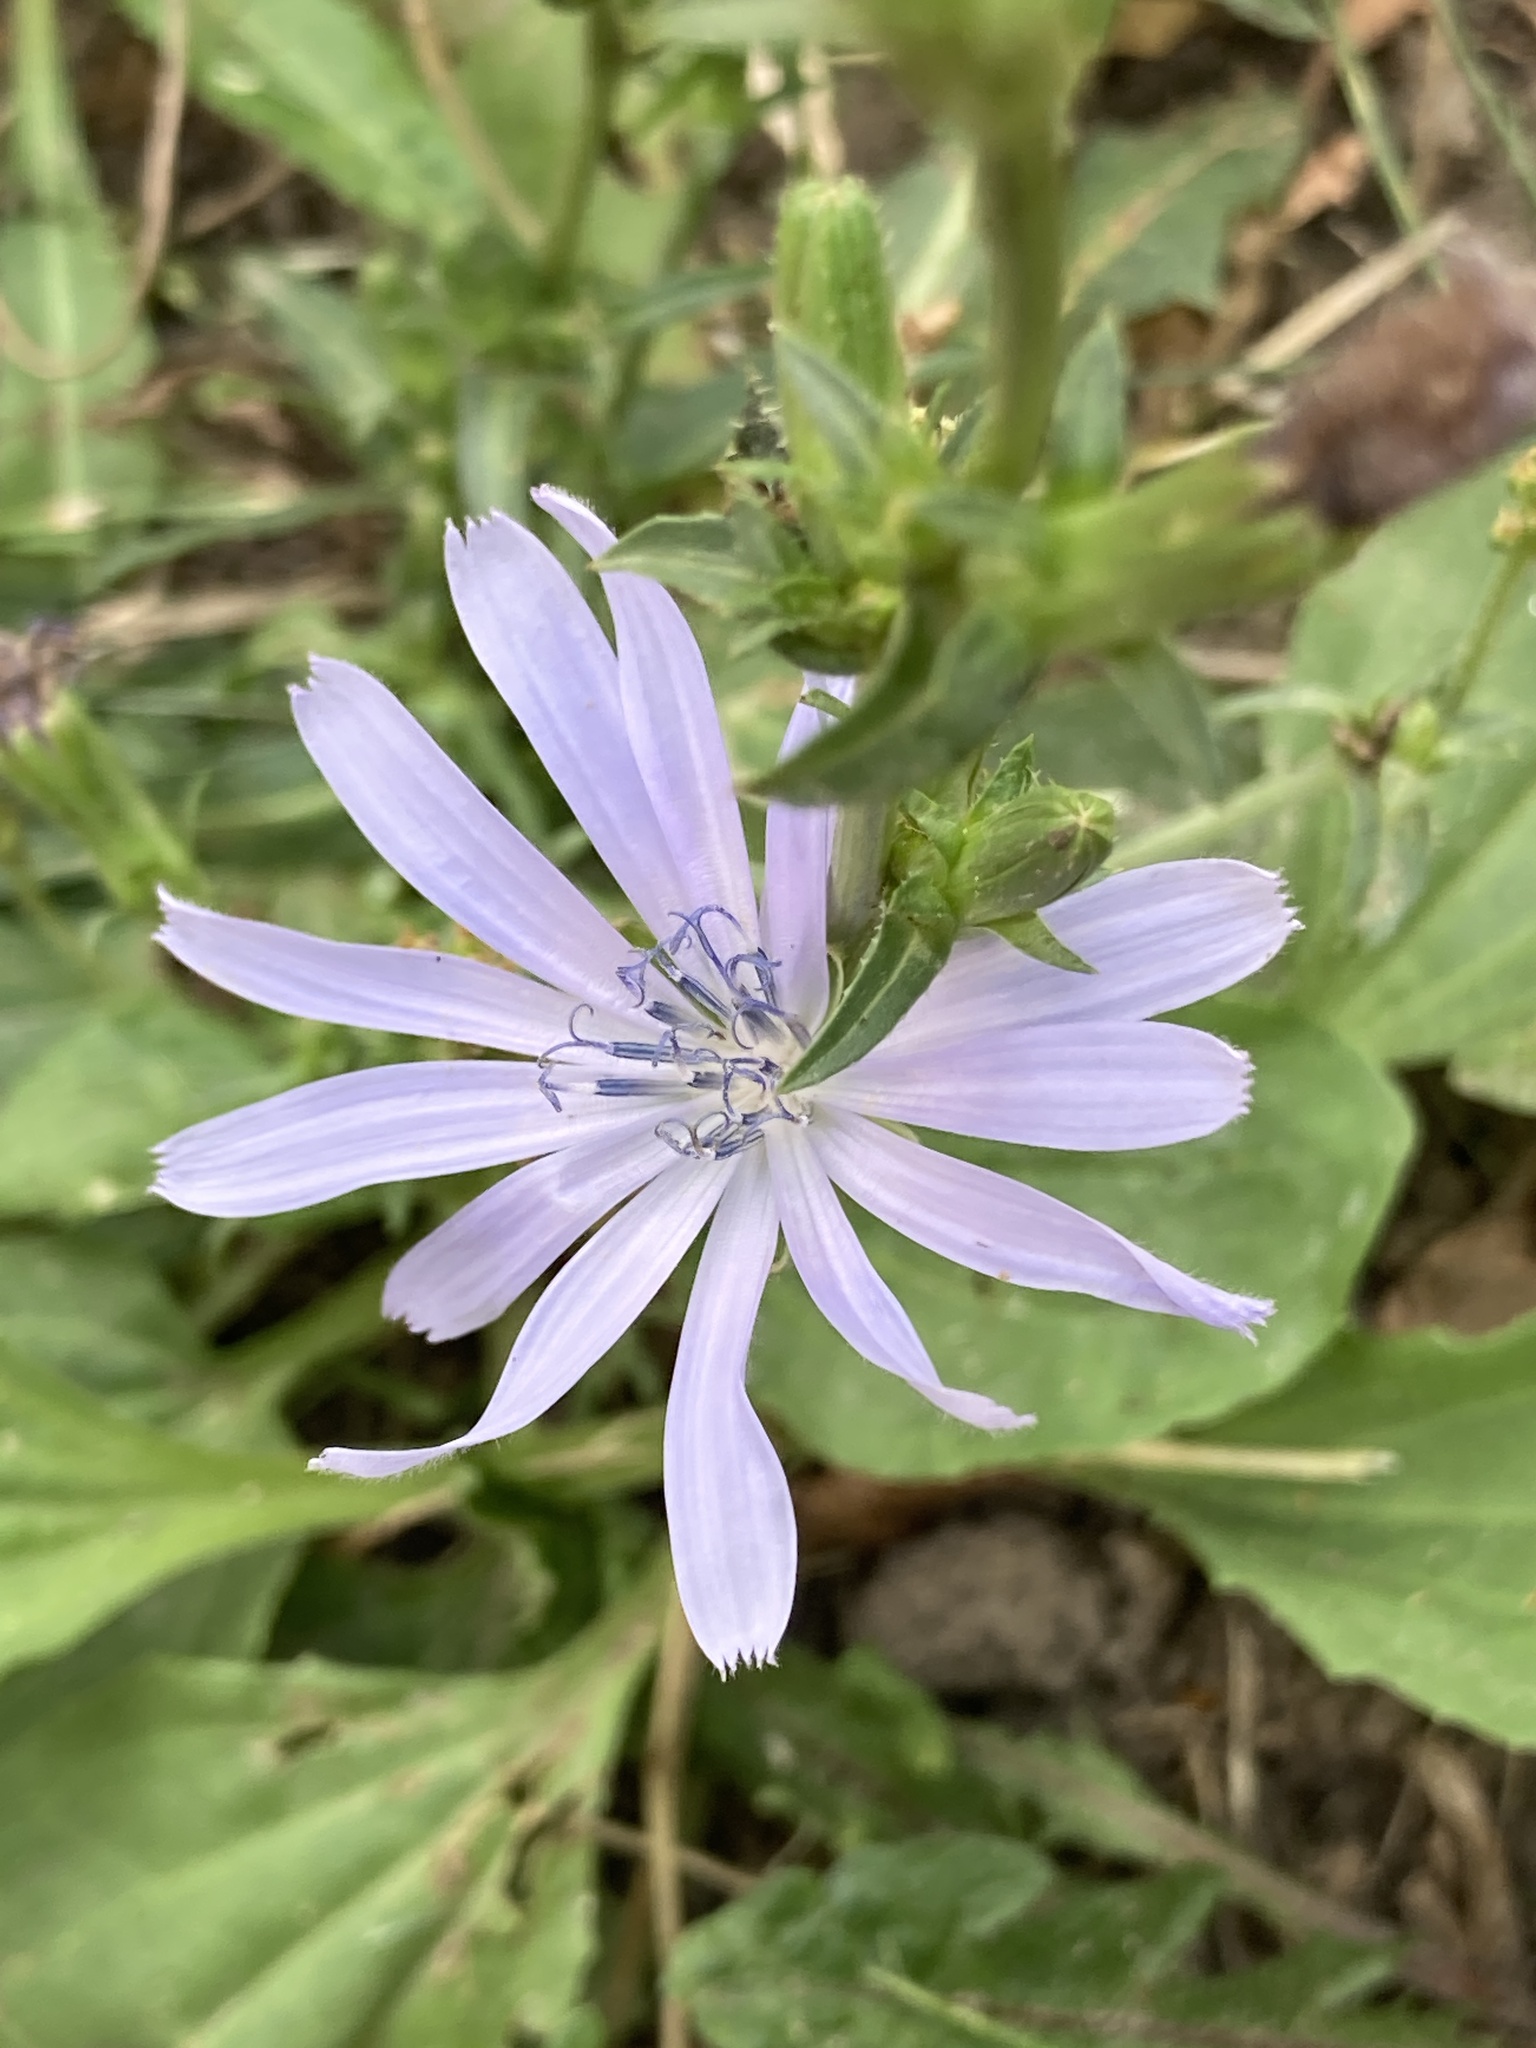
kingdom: Plantae
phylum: Tracheophyta
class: Magnoliopsida
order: Asterales
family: Asteraceae
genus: Cichorium
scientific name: Cichorium intybus
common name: Chicory
